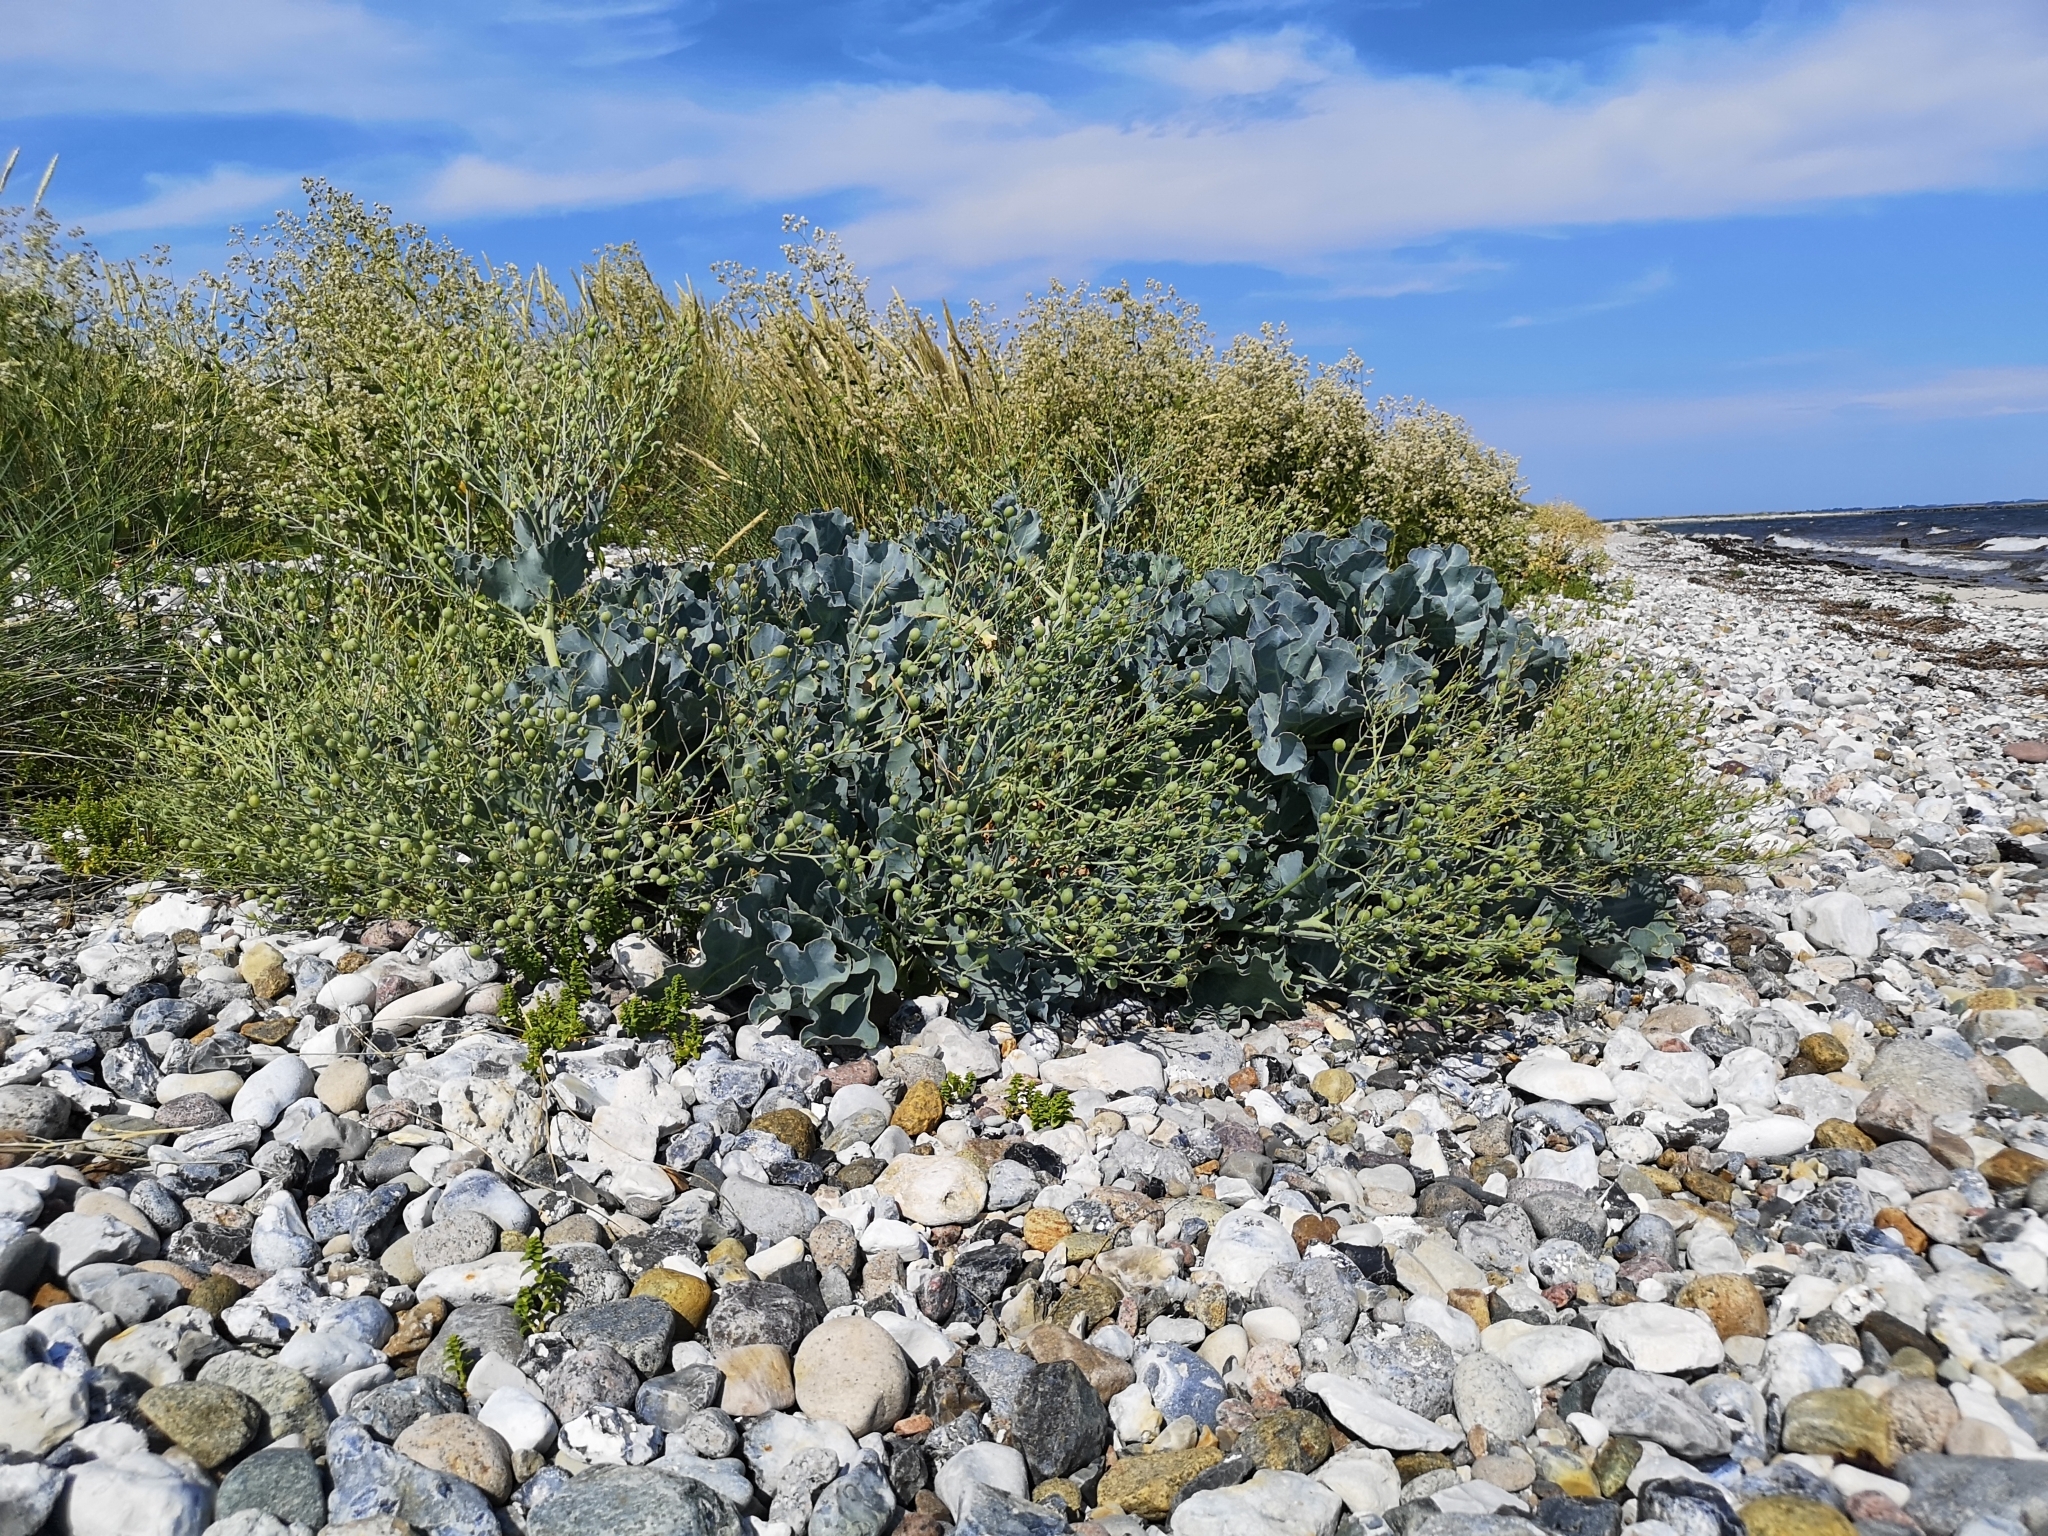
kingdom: Plantae
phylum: Tracheophyta
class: Magnoliopsida
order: Brassicales
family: Brassicaceae
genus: Crambe
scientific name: Crambe maritima
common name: Sea-kale
